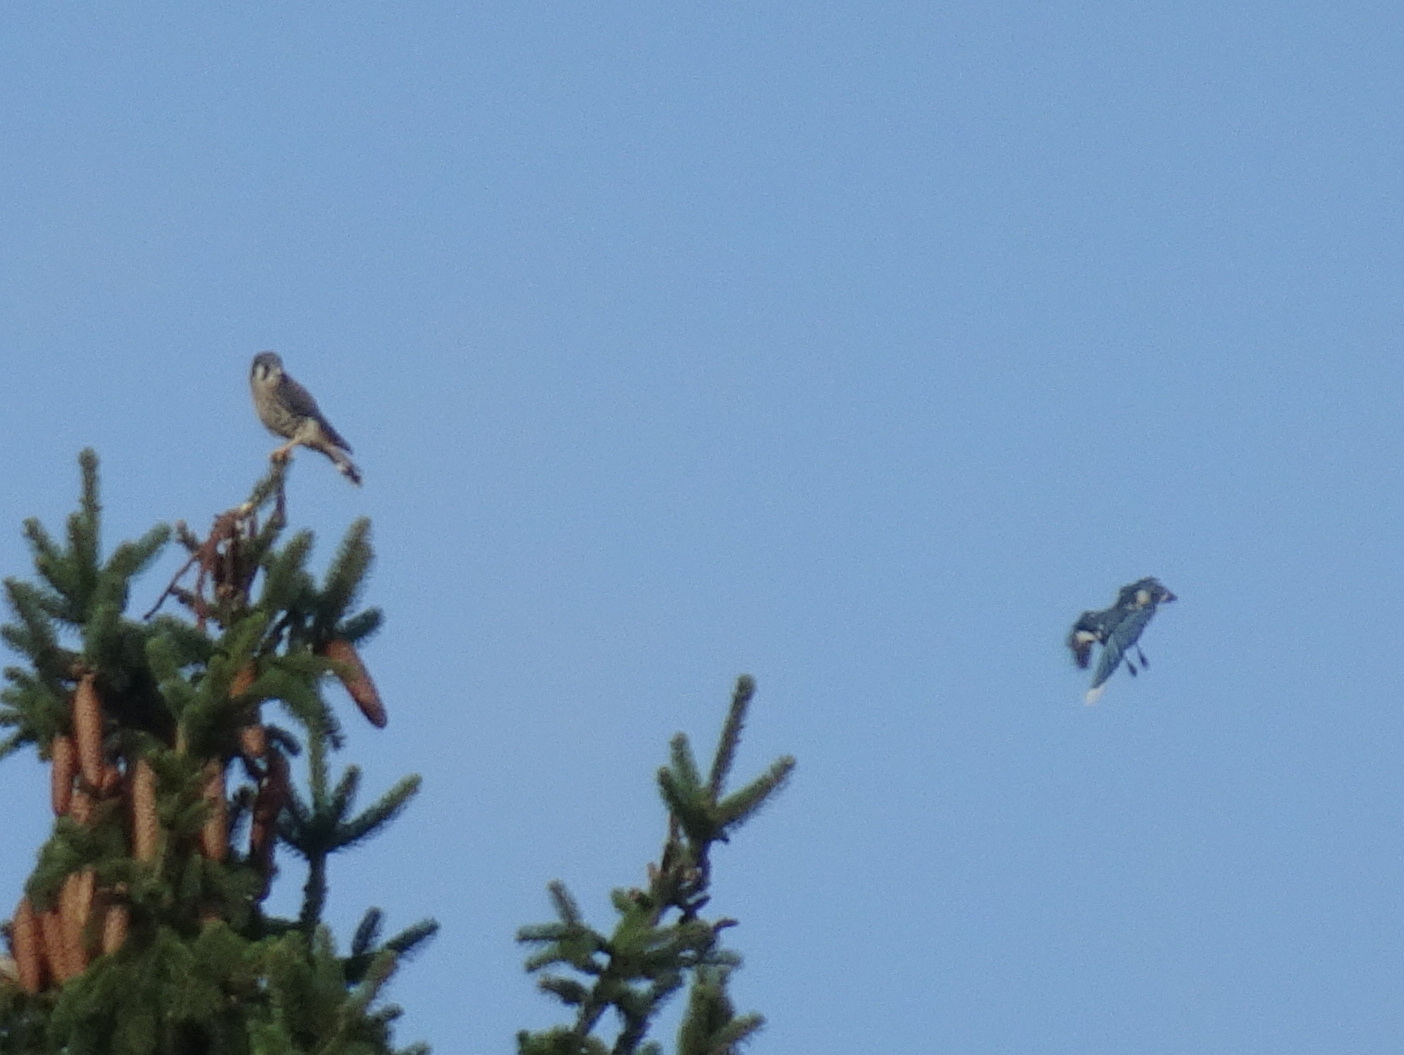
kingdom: Animalia
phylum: Chordata
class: Aves
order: Falconiformes
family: Falconidae
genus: Falco
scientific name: Falco sparverius
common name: American kestrel
